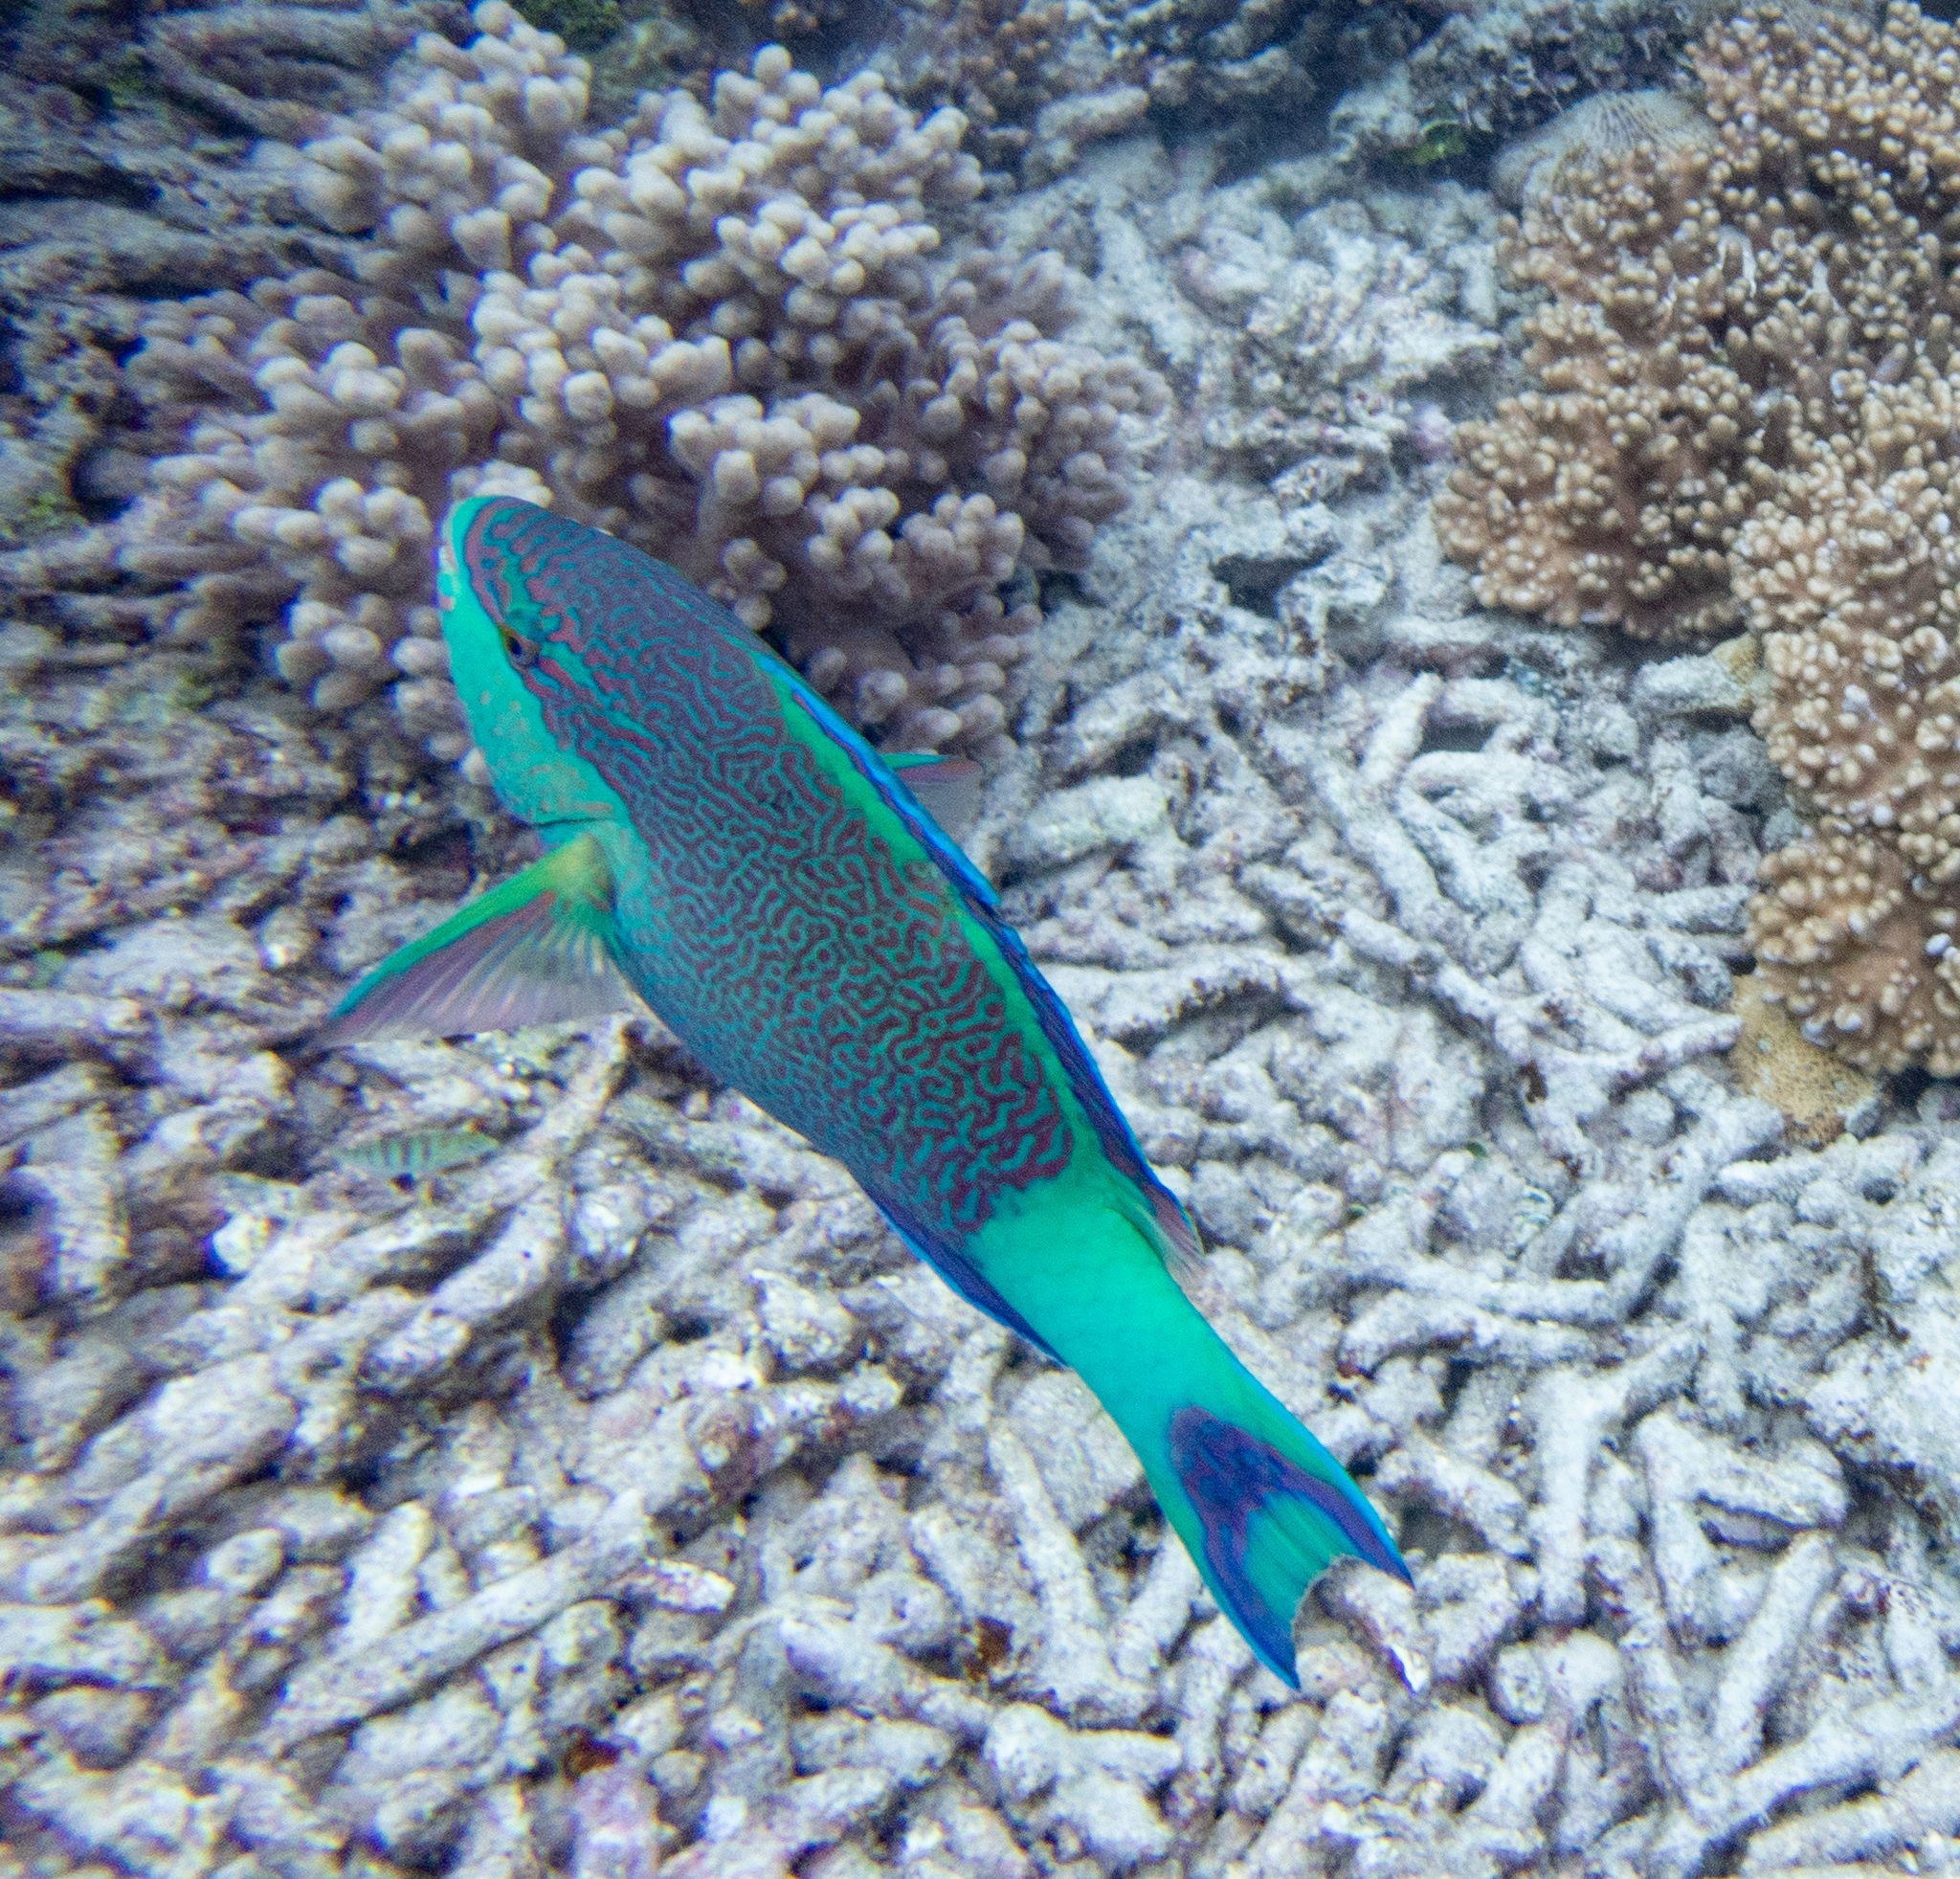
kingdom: Animalia
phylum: Chordata
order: Perciformes
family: Scaridae
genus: Scarus
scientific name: Scarus frenatus
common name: Bridled parrotfish
